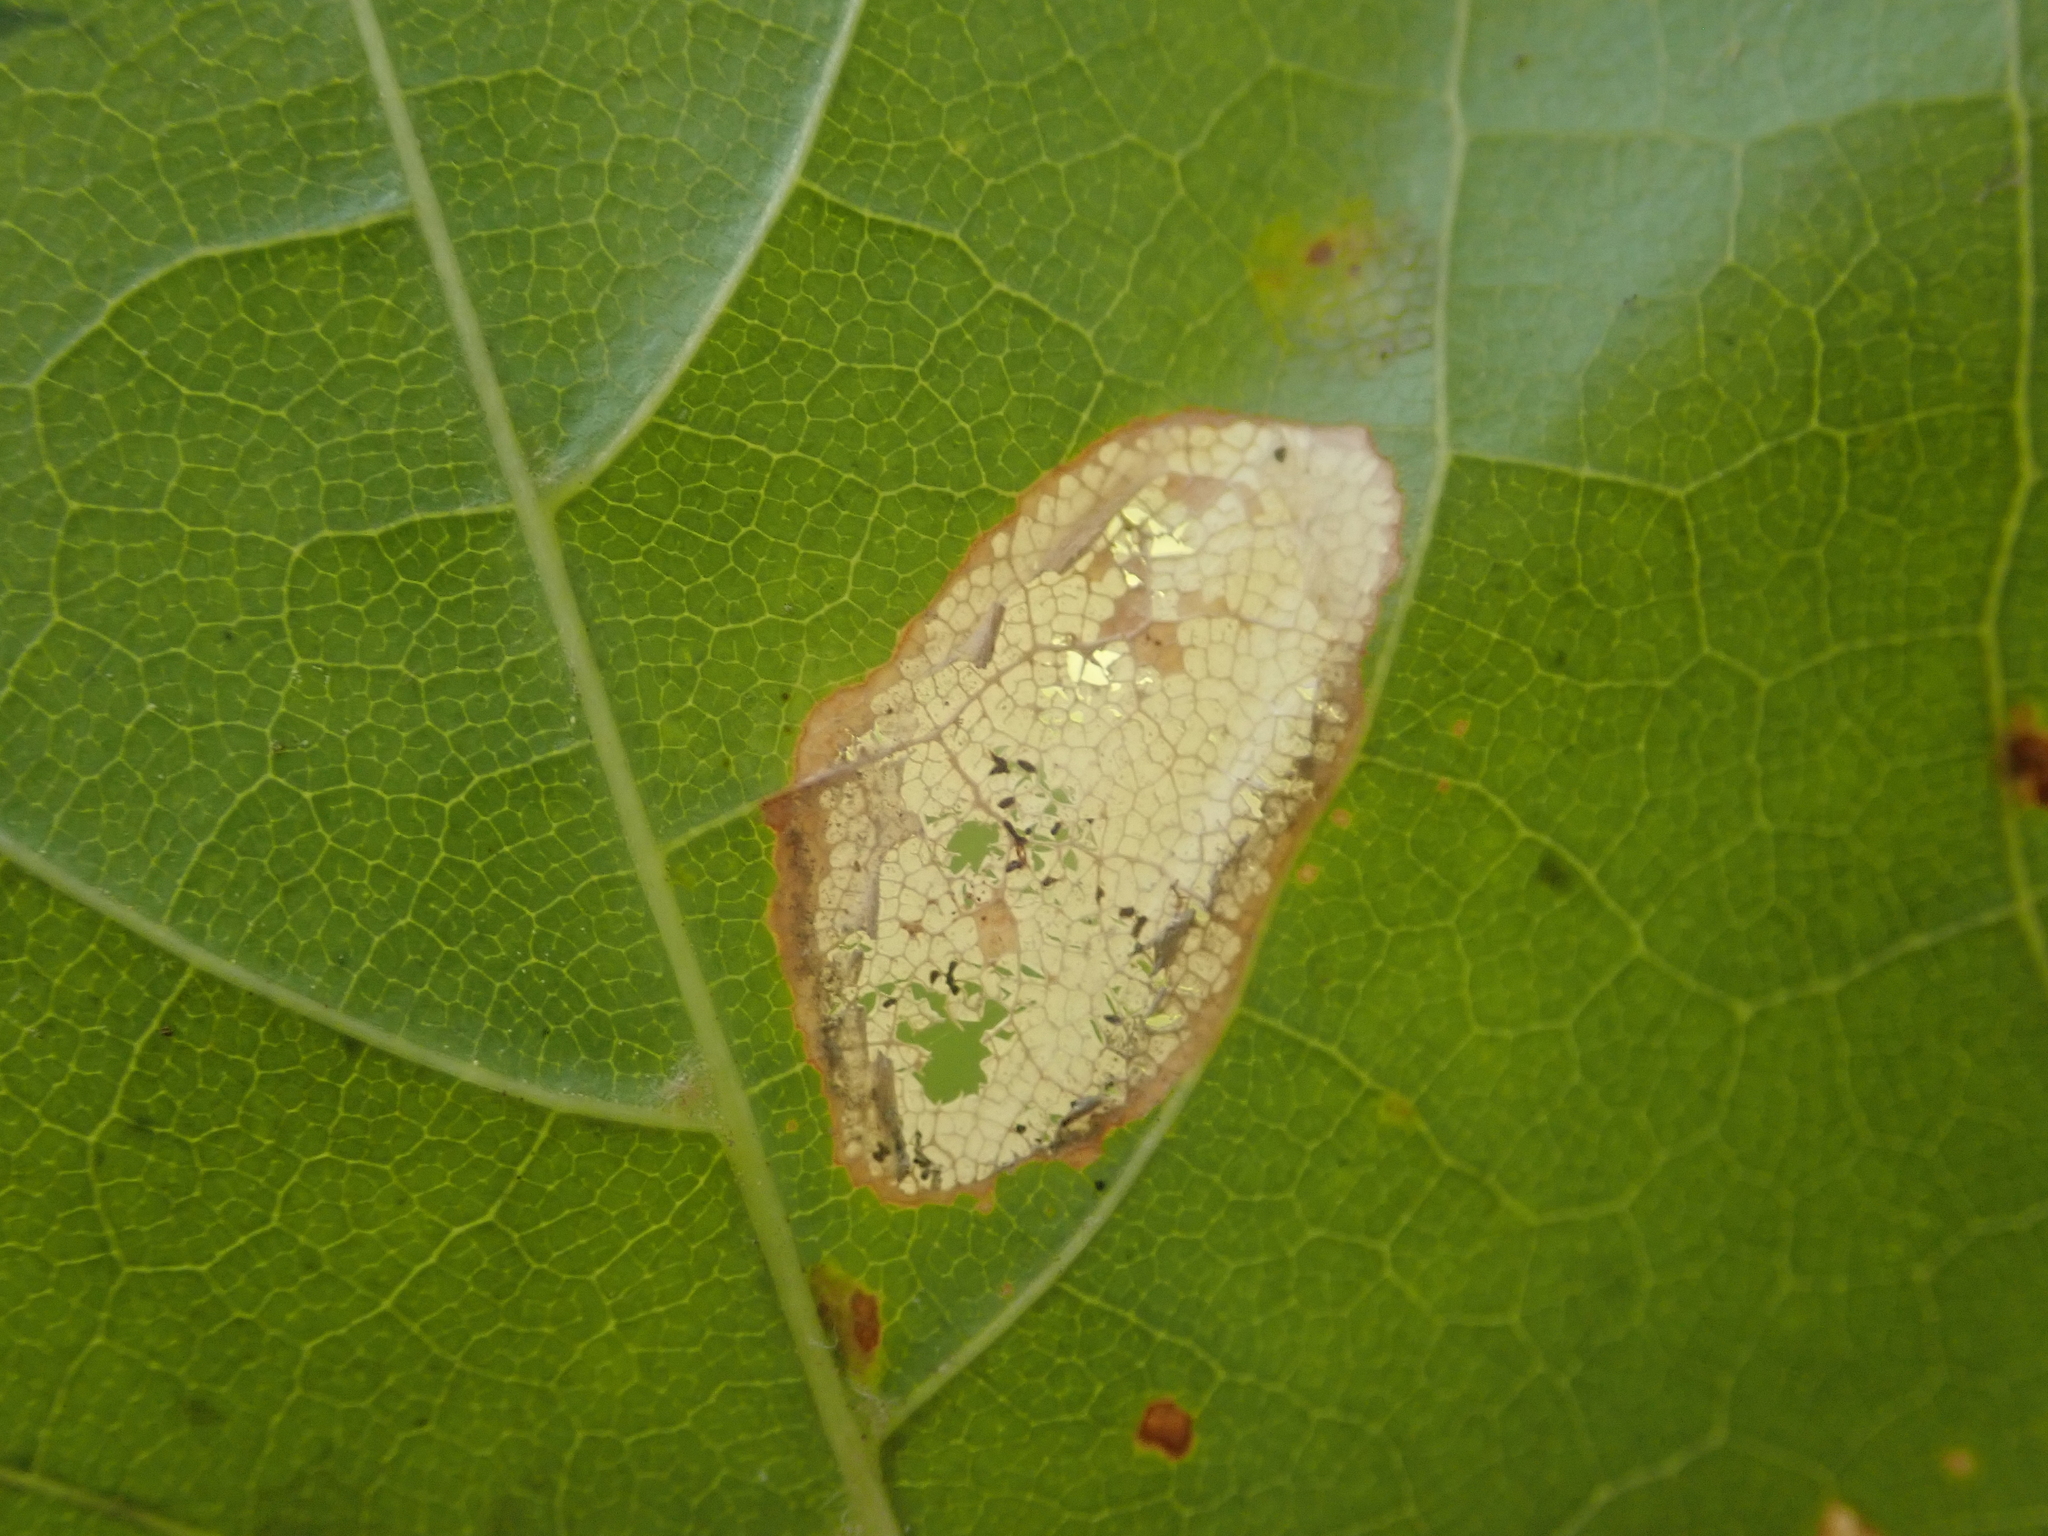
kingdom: Animalia
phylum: Arthropoda
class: Insecta
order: Lepidoptera
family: Gracillariidae
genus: Phyllonorycter
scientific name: Phyllonorycter joannisi
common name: White-bodied midget
